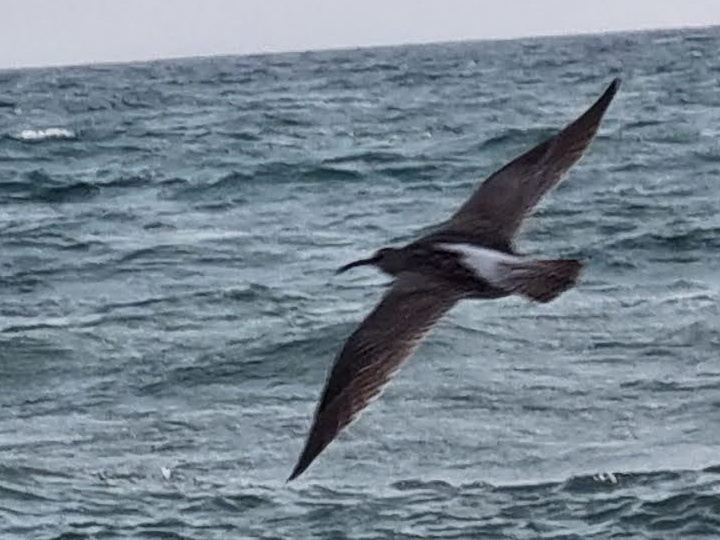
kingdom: Animalia
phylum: Chordata
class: Aves
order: Charadriiformes
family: Scolopacidae
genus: Numenius
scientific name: Numenius phaeopus
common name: Whimbrel
